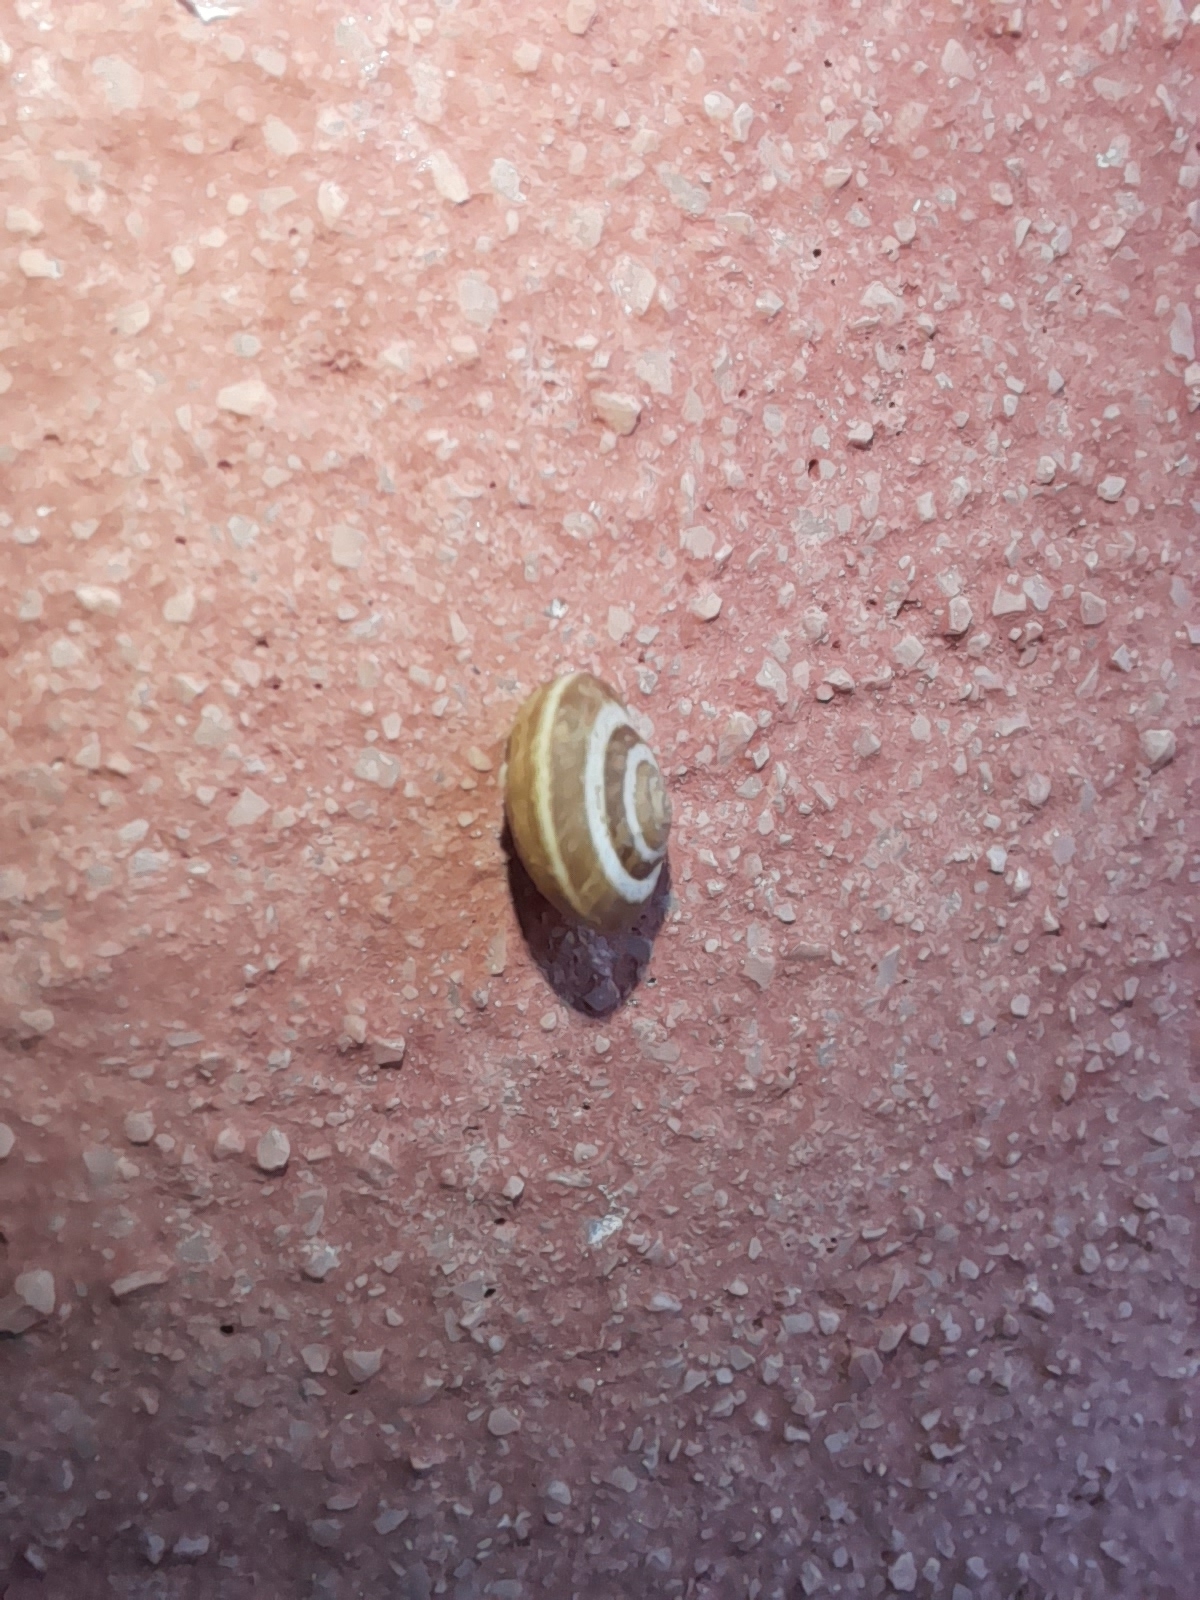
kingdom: Animalia
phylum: Mollusca
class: Gastropoda
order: Stylommatophora
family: Geomitridae
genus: Cernuella
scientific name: Cernuella virgata
